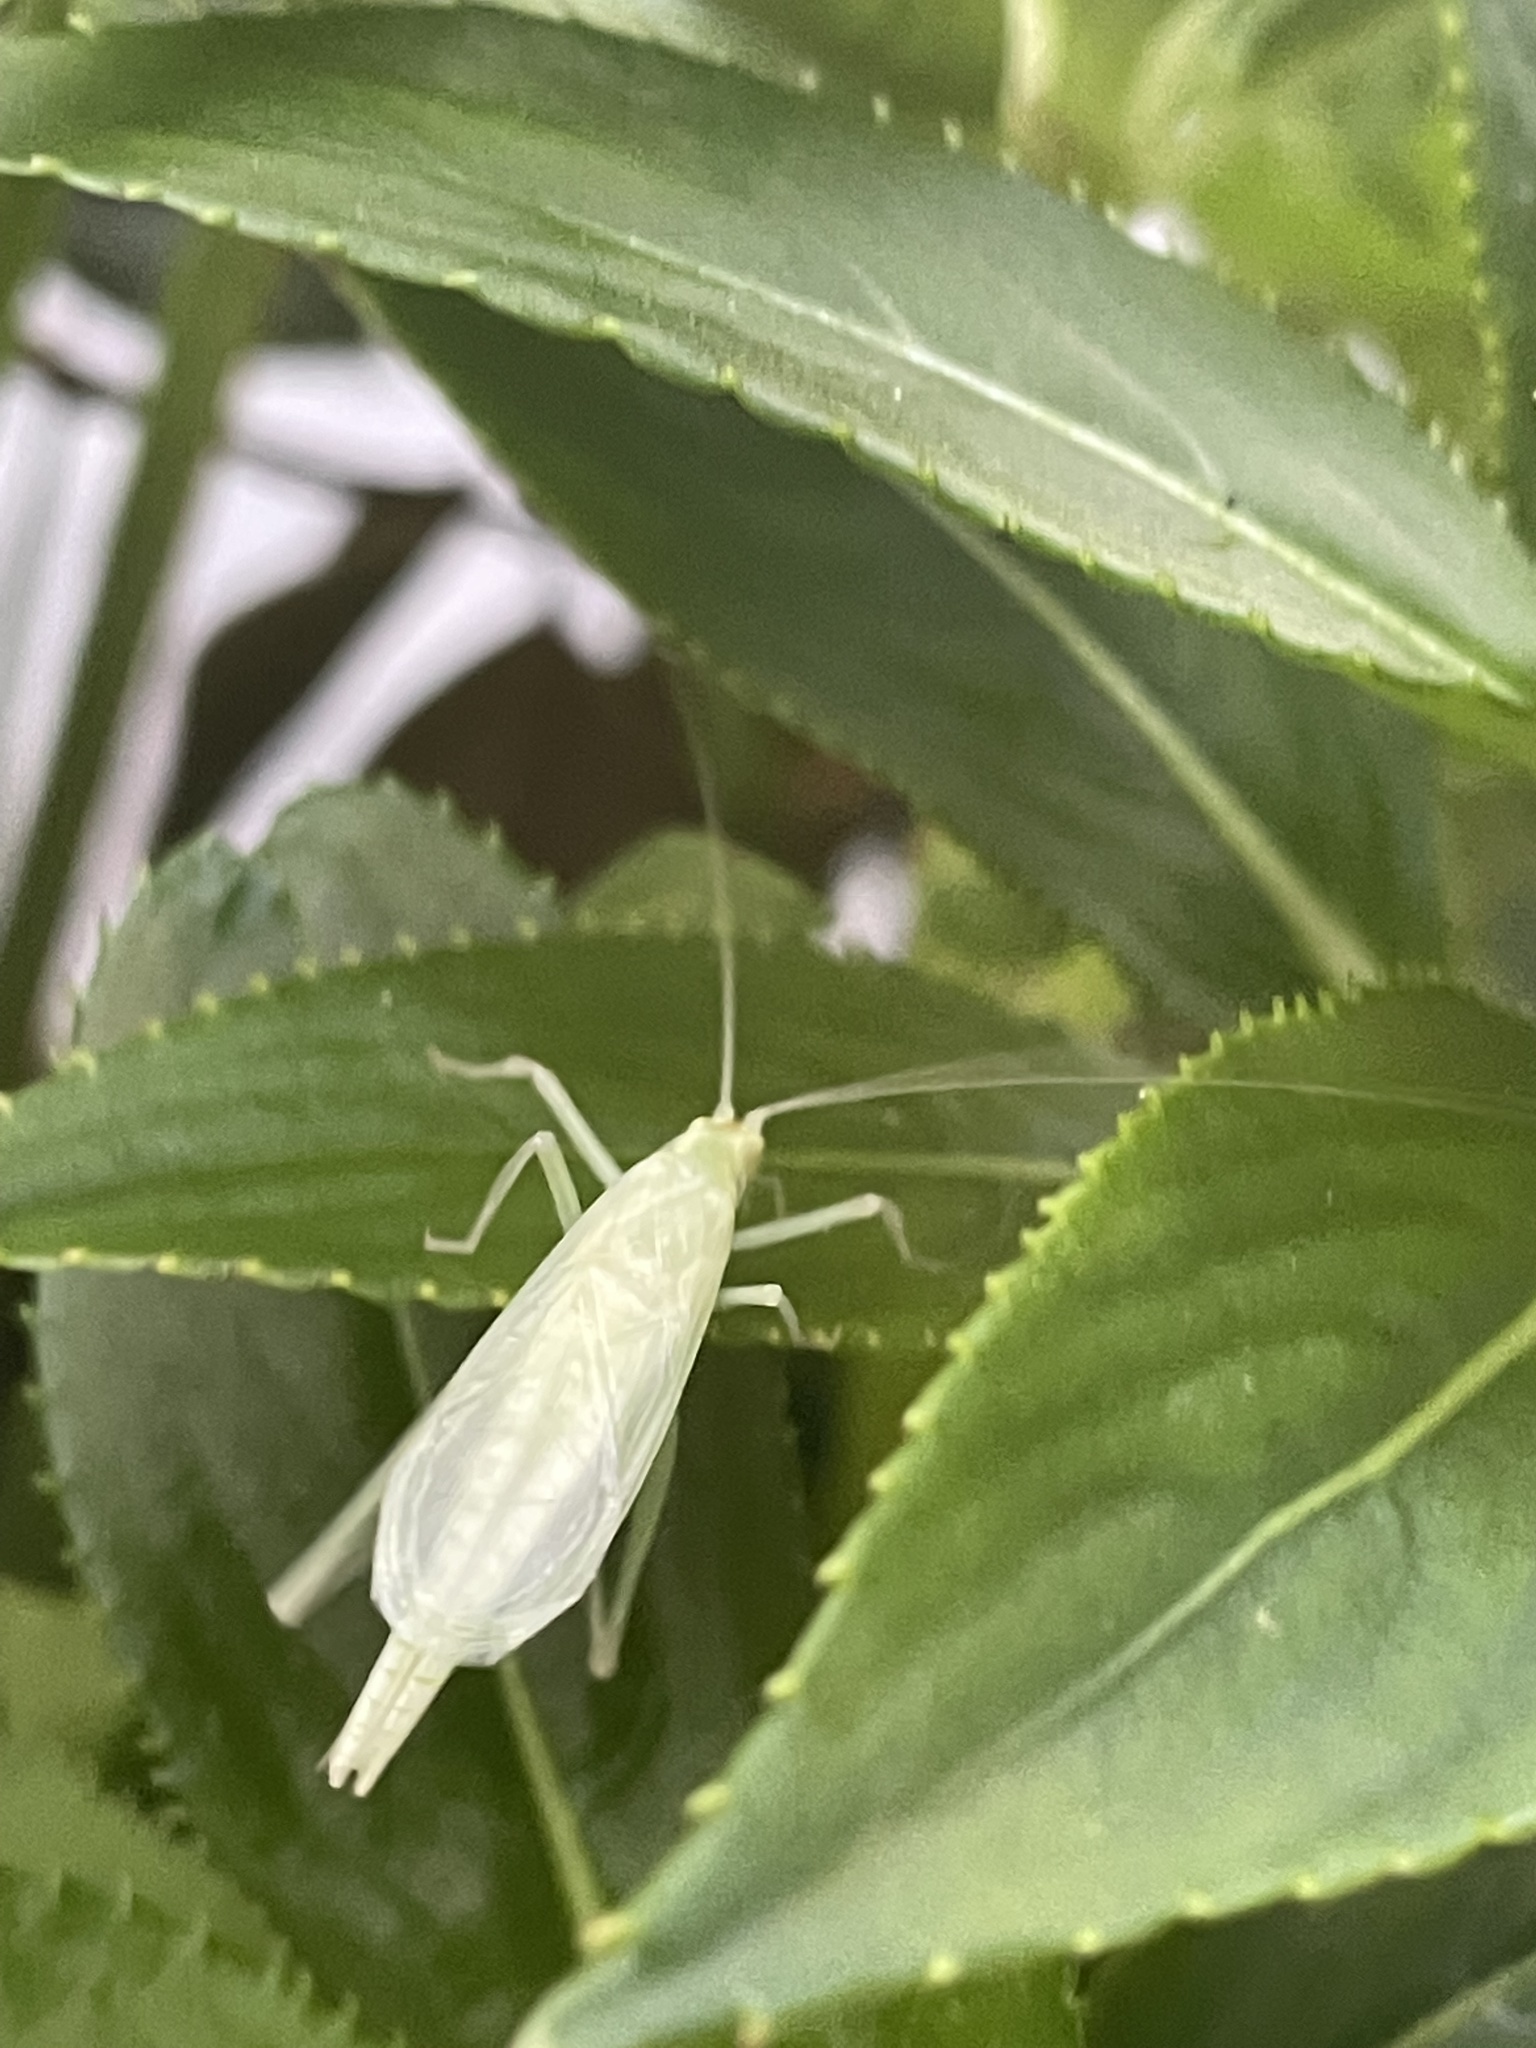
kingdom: Animalia
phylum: Arthropoda
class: Insecta
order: Orthoptera
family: Gryllidae
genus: Oecanthus
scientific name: Oecanthus
